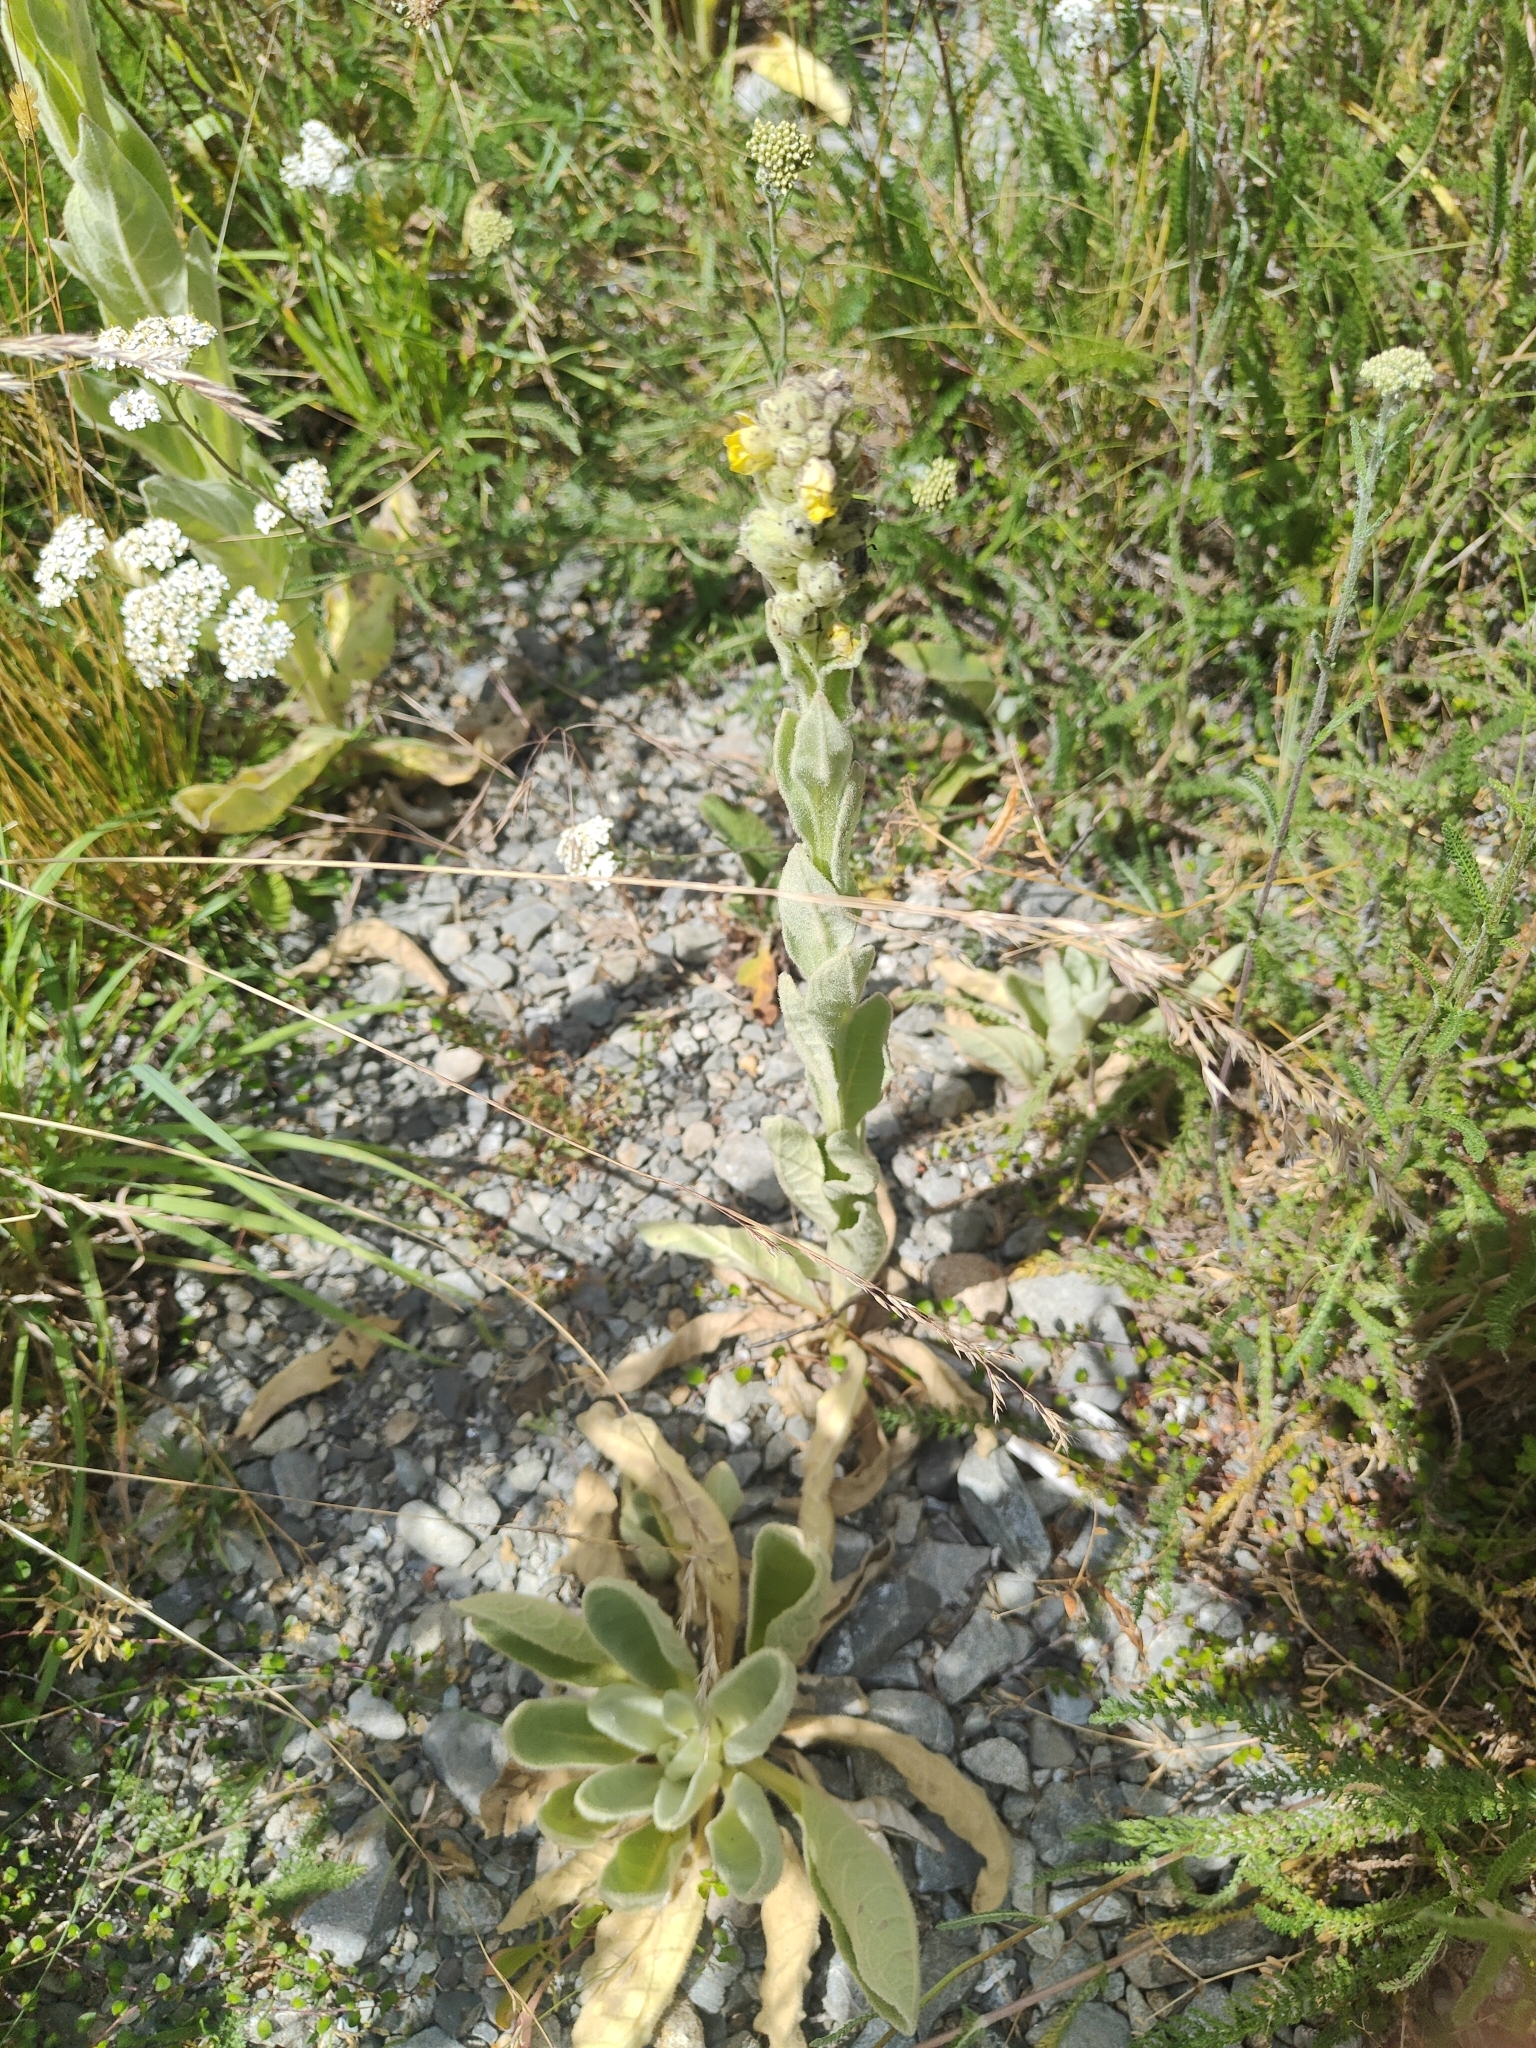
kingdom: Plantae
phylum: Tracheophyta
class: Magnoliopsida
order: Lamiales
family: Scrophulariaceae
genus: Verbascum
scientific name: Verbascum thapsus
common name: Common mullein
